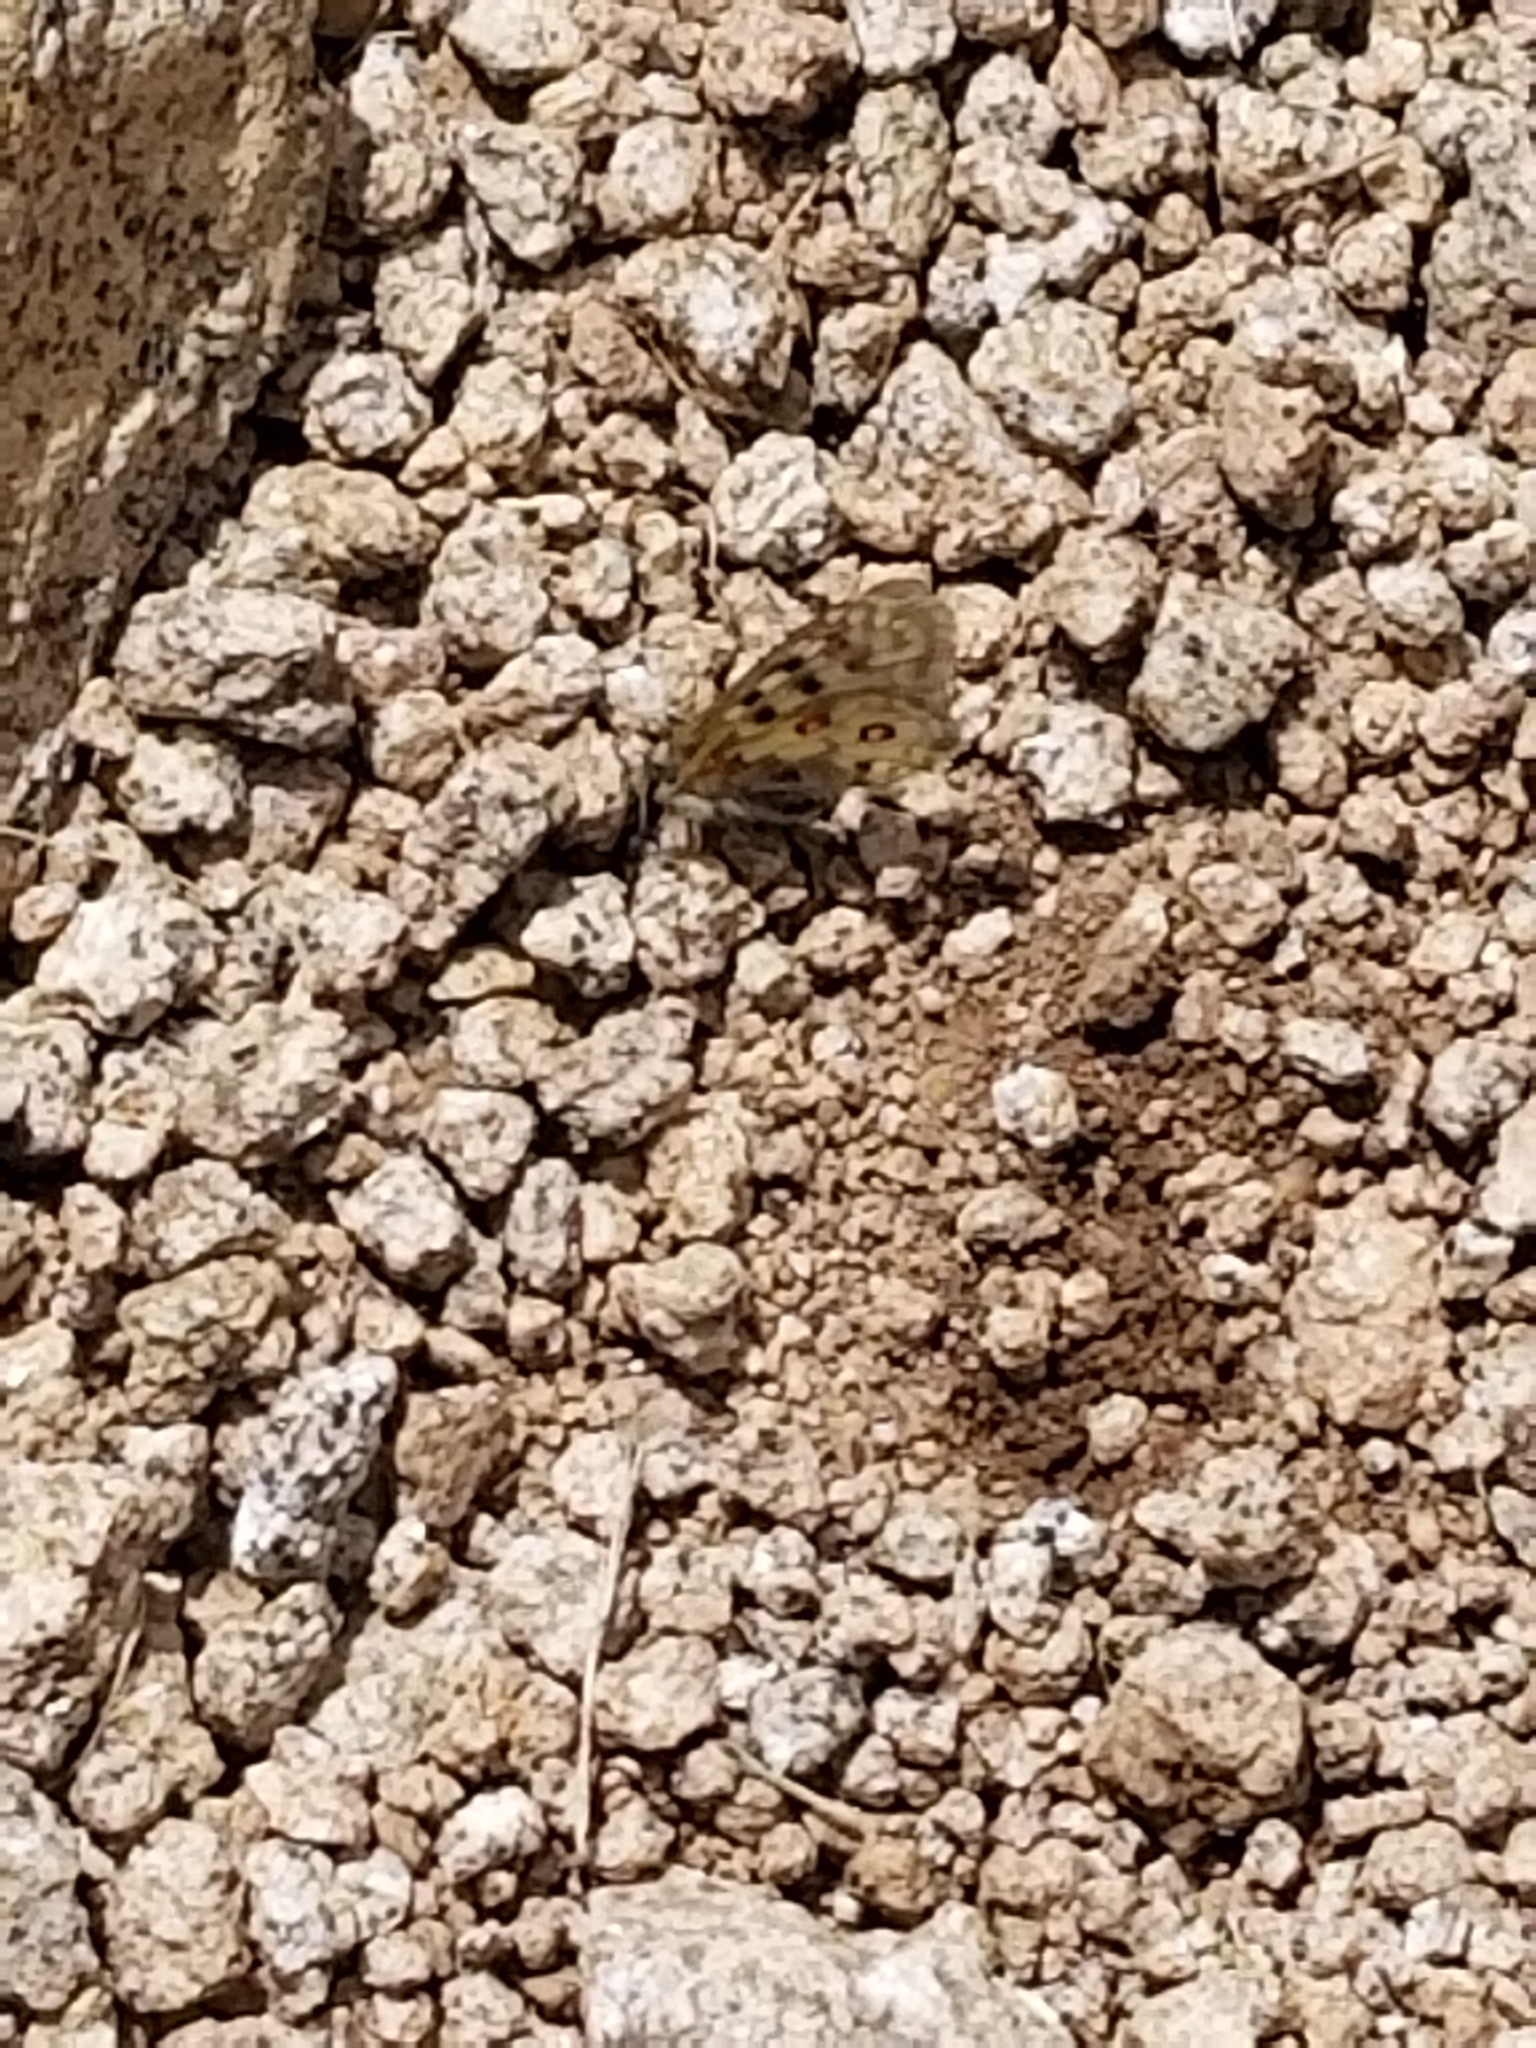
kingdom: Animalia
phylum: Arthropoda
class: Insecta
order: Lepidoptera
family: Papilionidae
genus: Parnassius
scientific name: Parnassius smintheus
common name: Mountain parnassian
